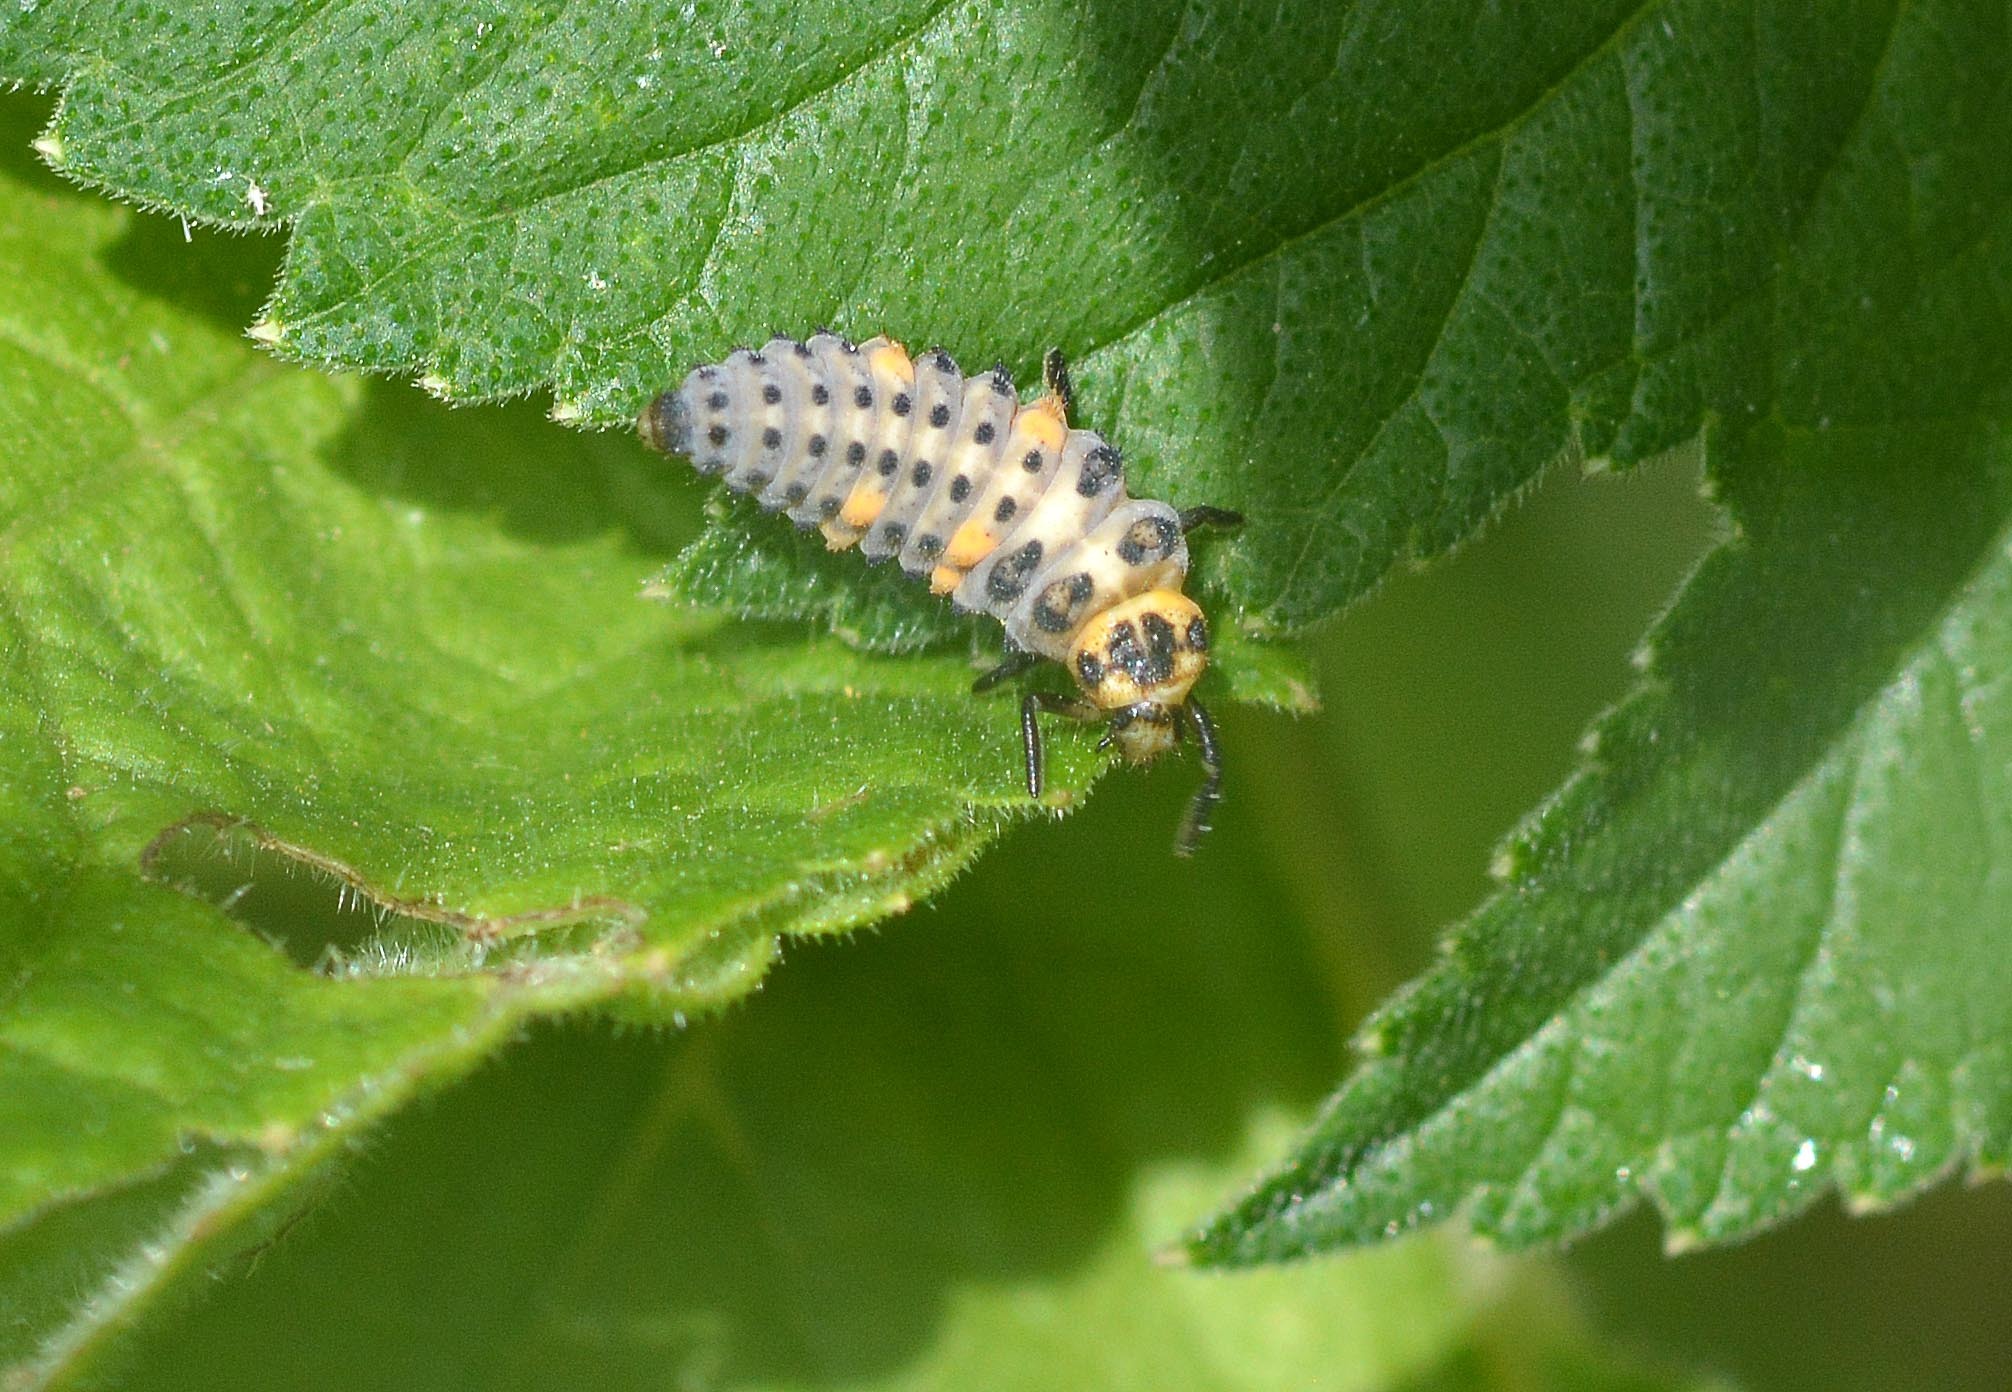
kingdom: Animalia
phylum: Arthropoda
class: Insecta
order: Coleoptera
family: Coccinellidae
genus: Coccinella
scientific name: Coccinella septempunctata
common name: Sevenspotted lady beetle
